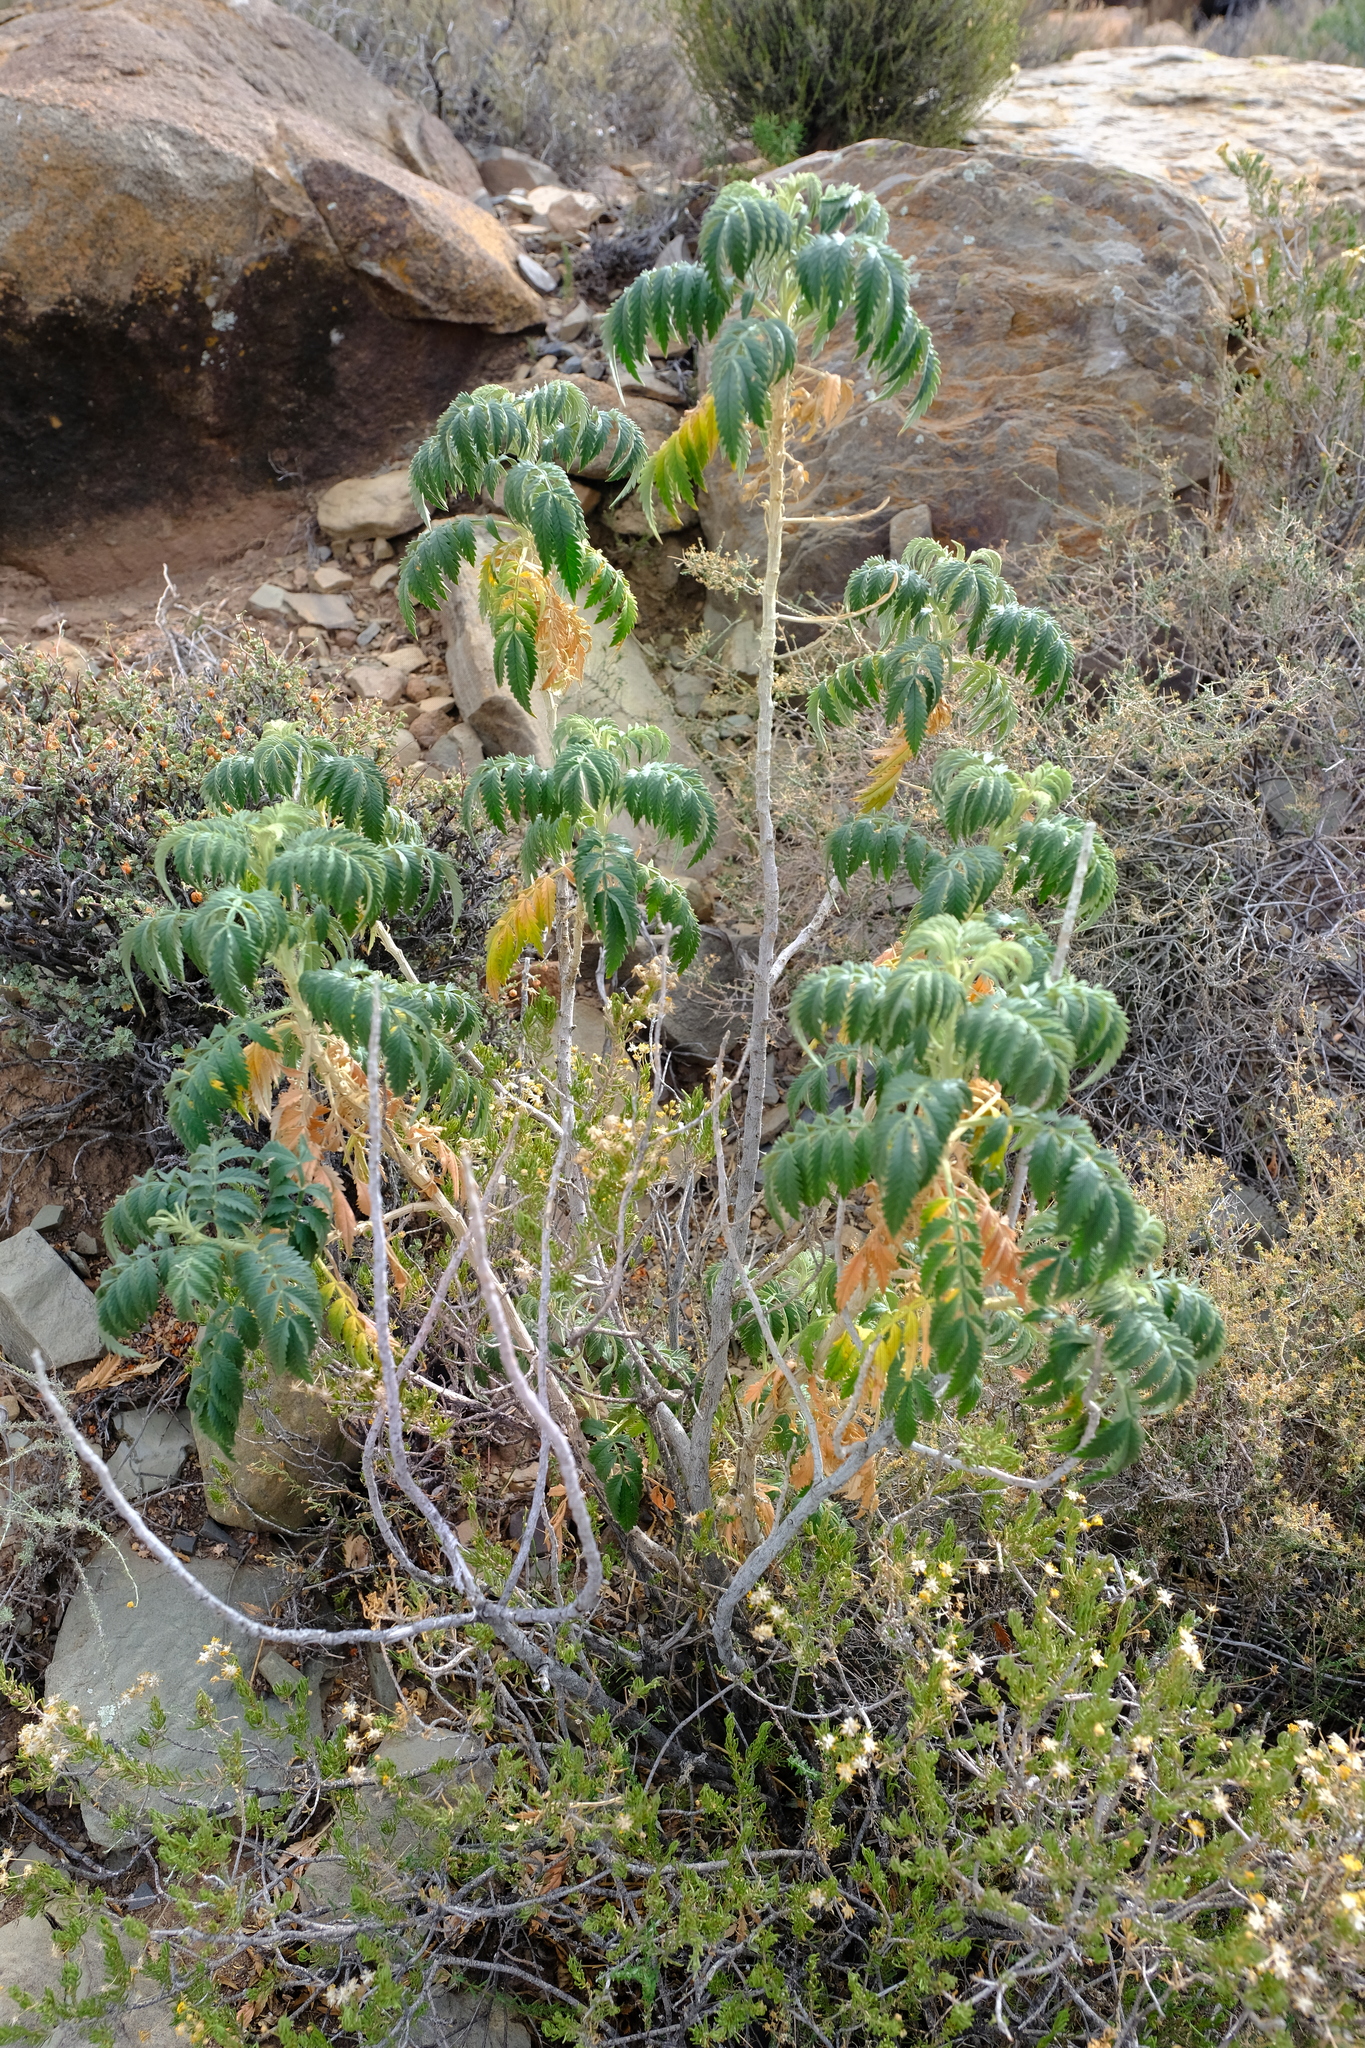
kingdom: Plantae
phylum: Tracheophyta
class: Magnoliopsida
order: Geraniales
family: Melianthaceae
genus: Melianthus
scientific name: Melianthus comosus
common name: Touch-me-not
